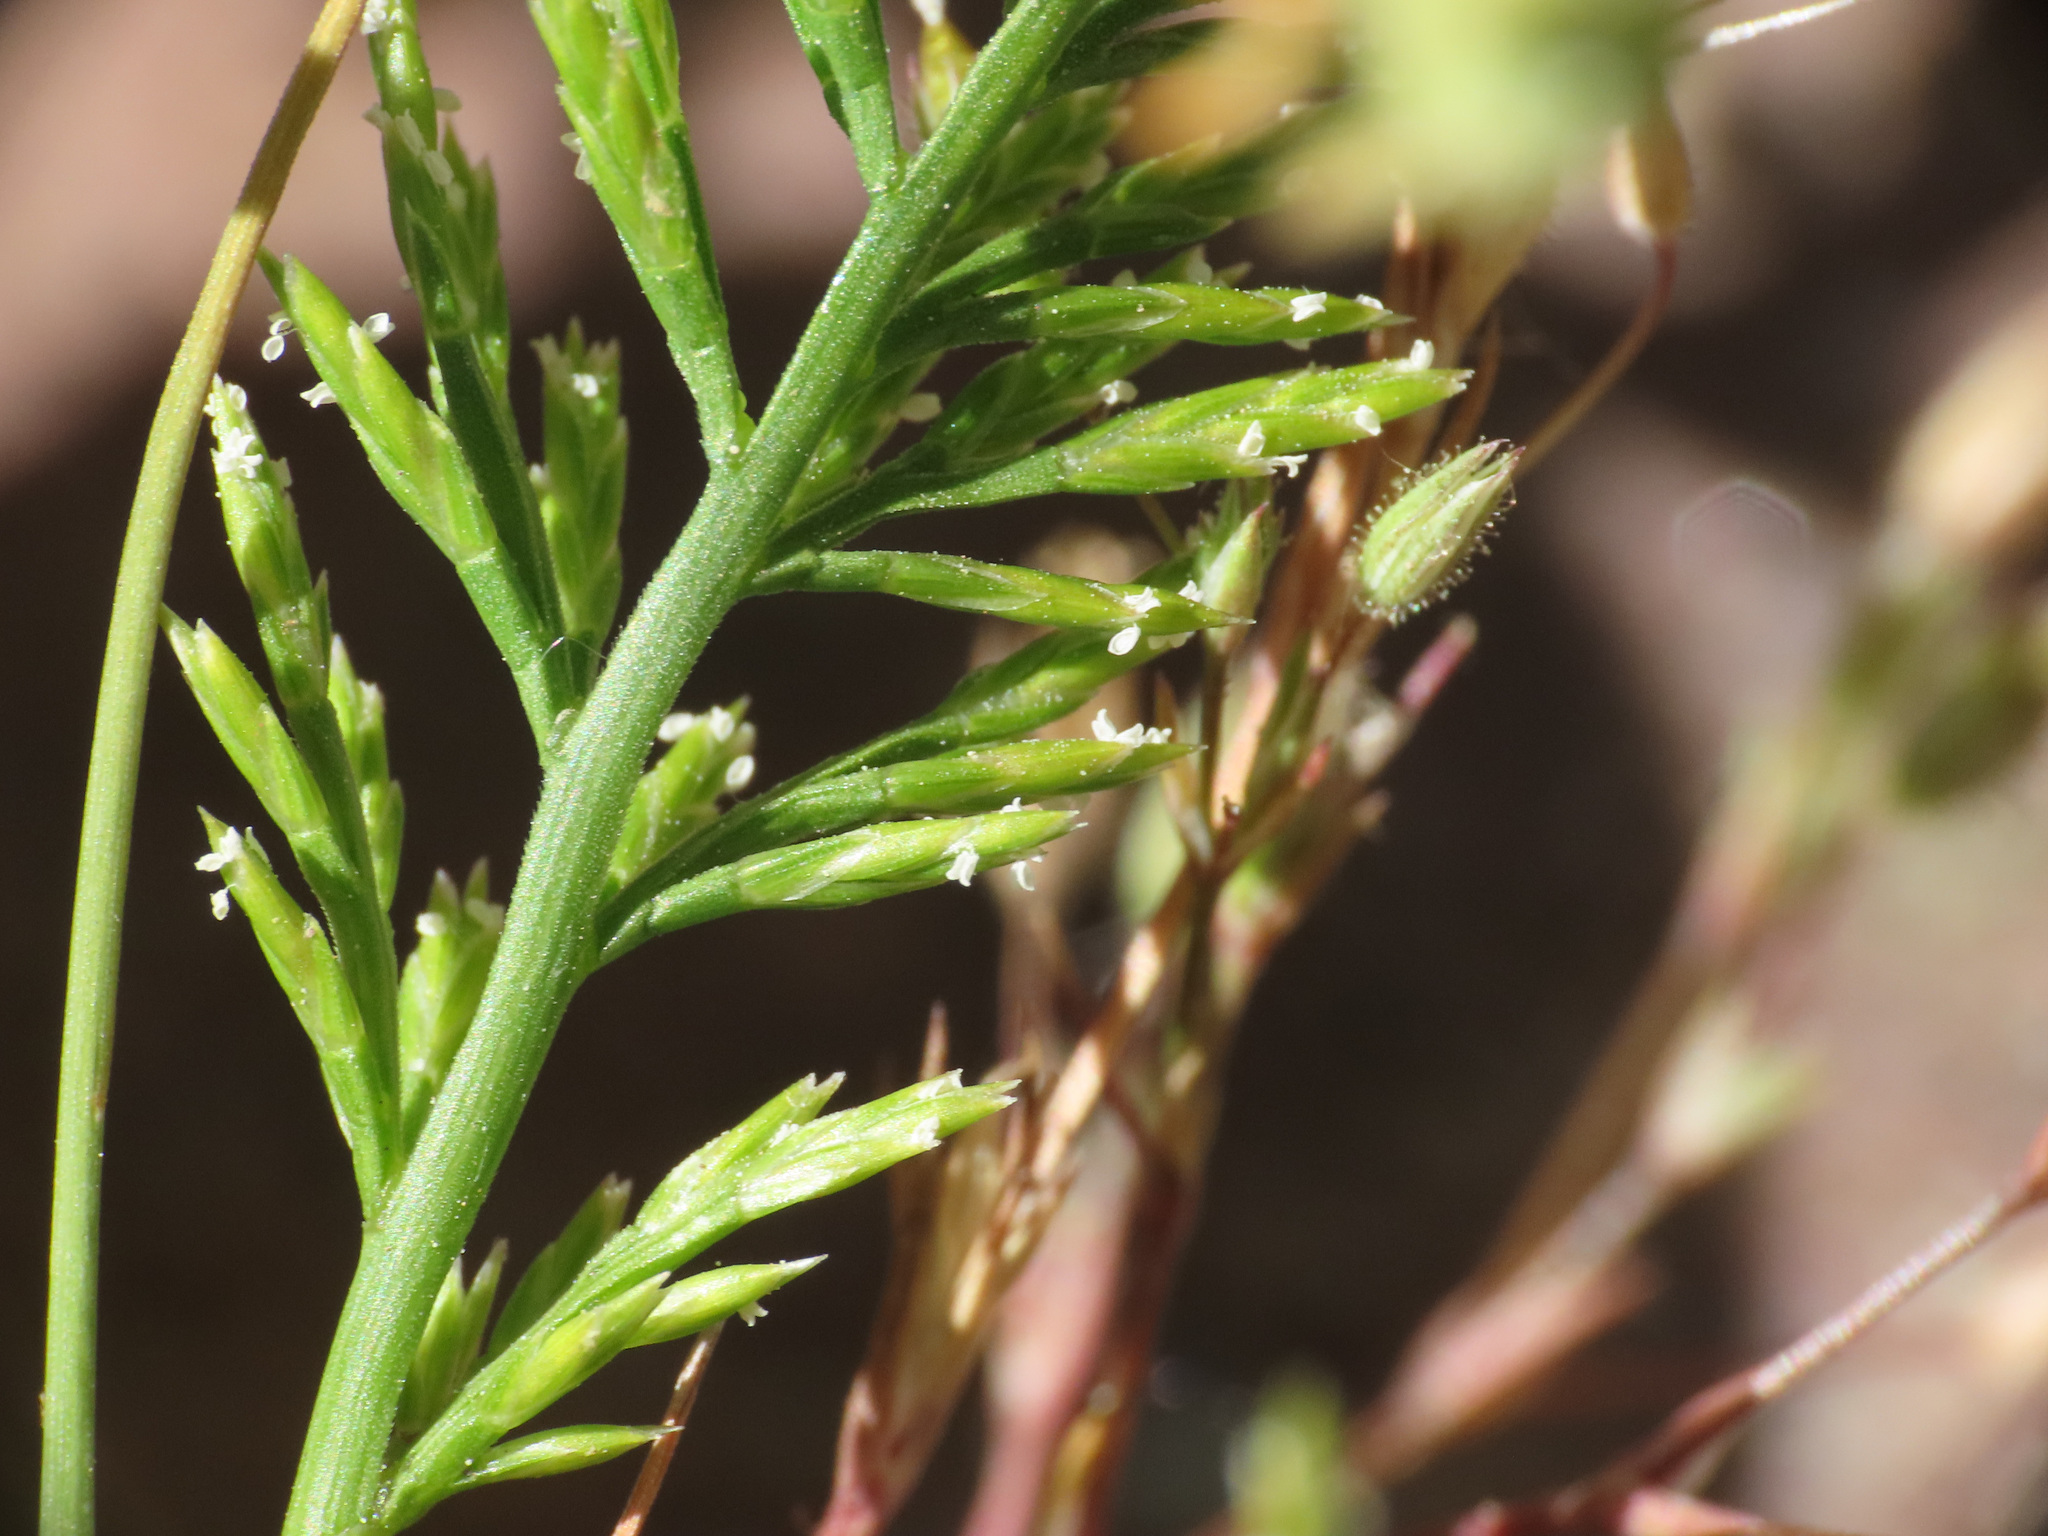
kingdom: Plantae
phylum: Tracheophyta
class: Liliopsida
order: Poales
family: Poaceae
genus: Catapodium
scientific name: Catapodium rigidum
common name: Fern-grass
